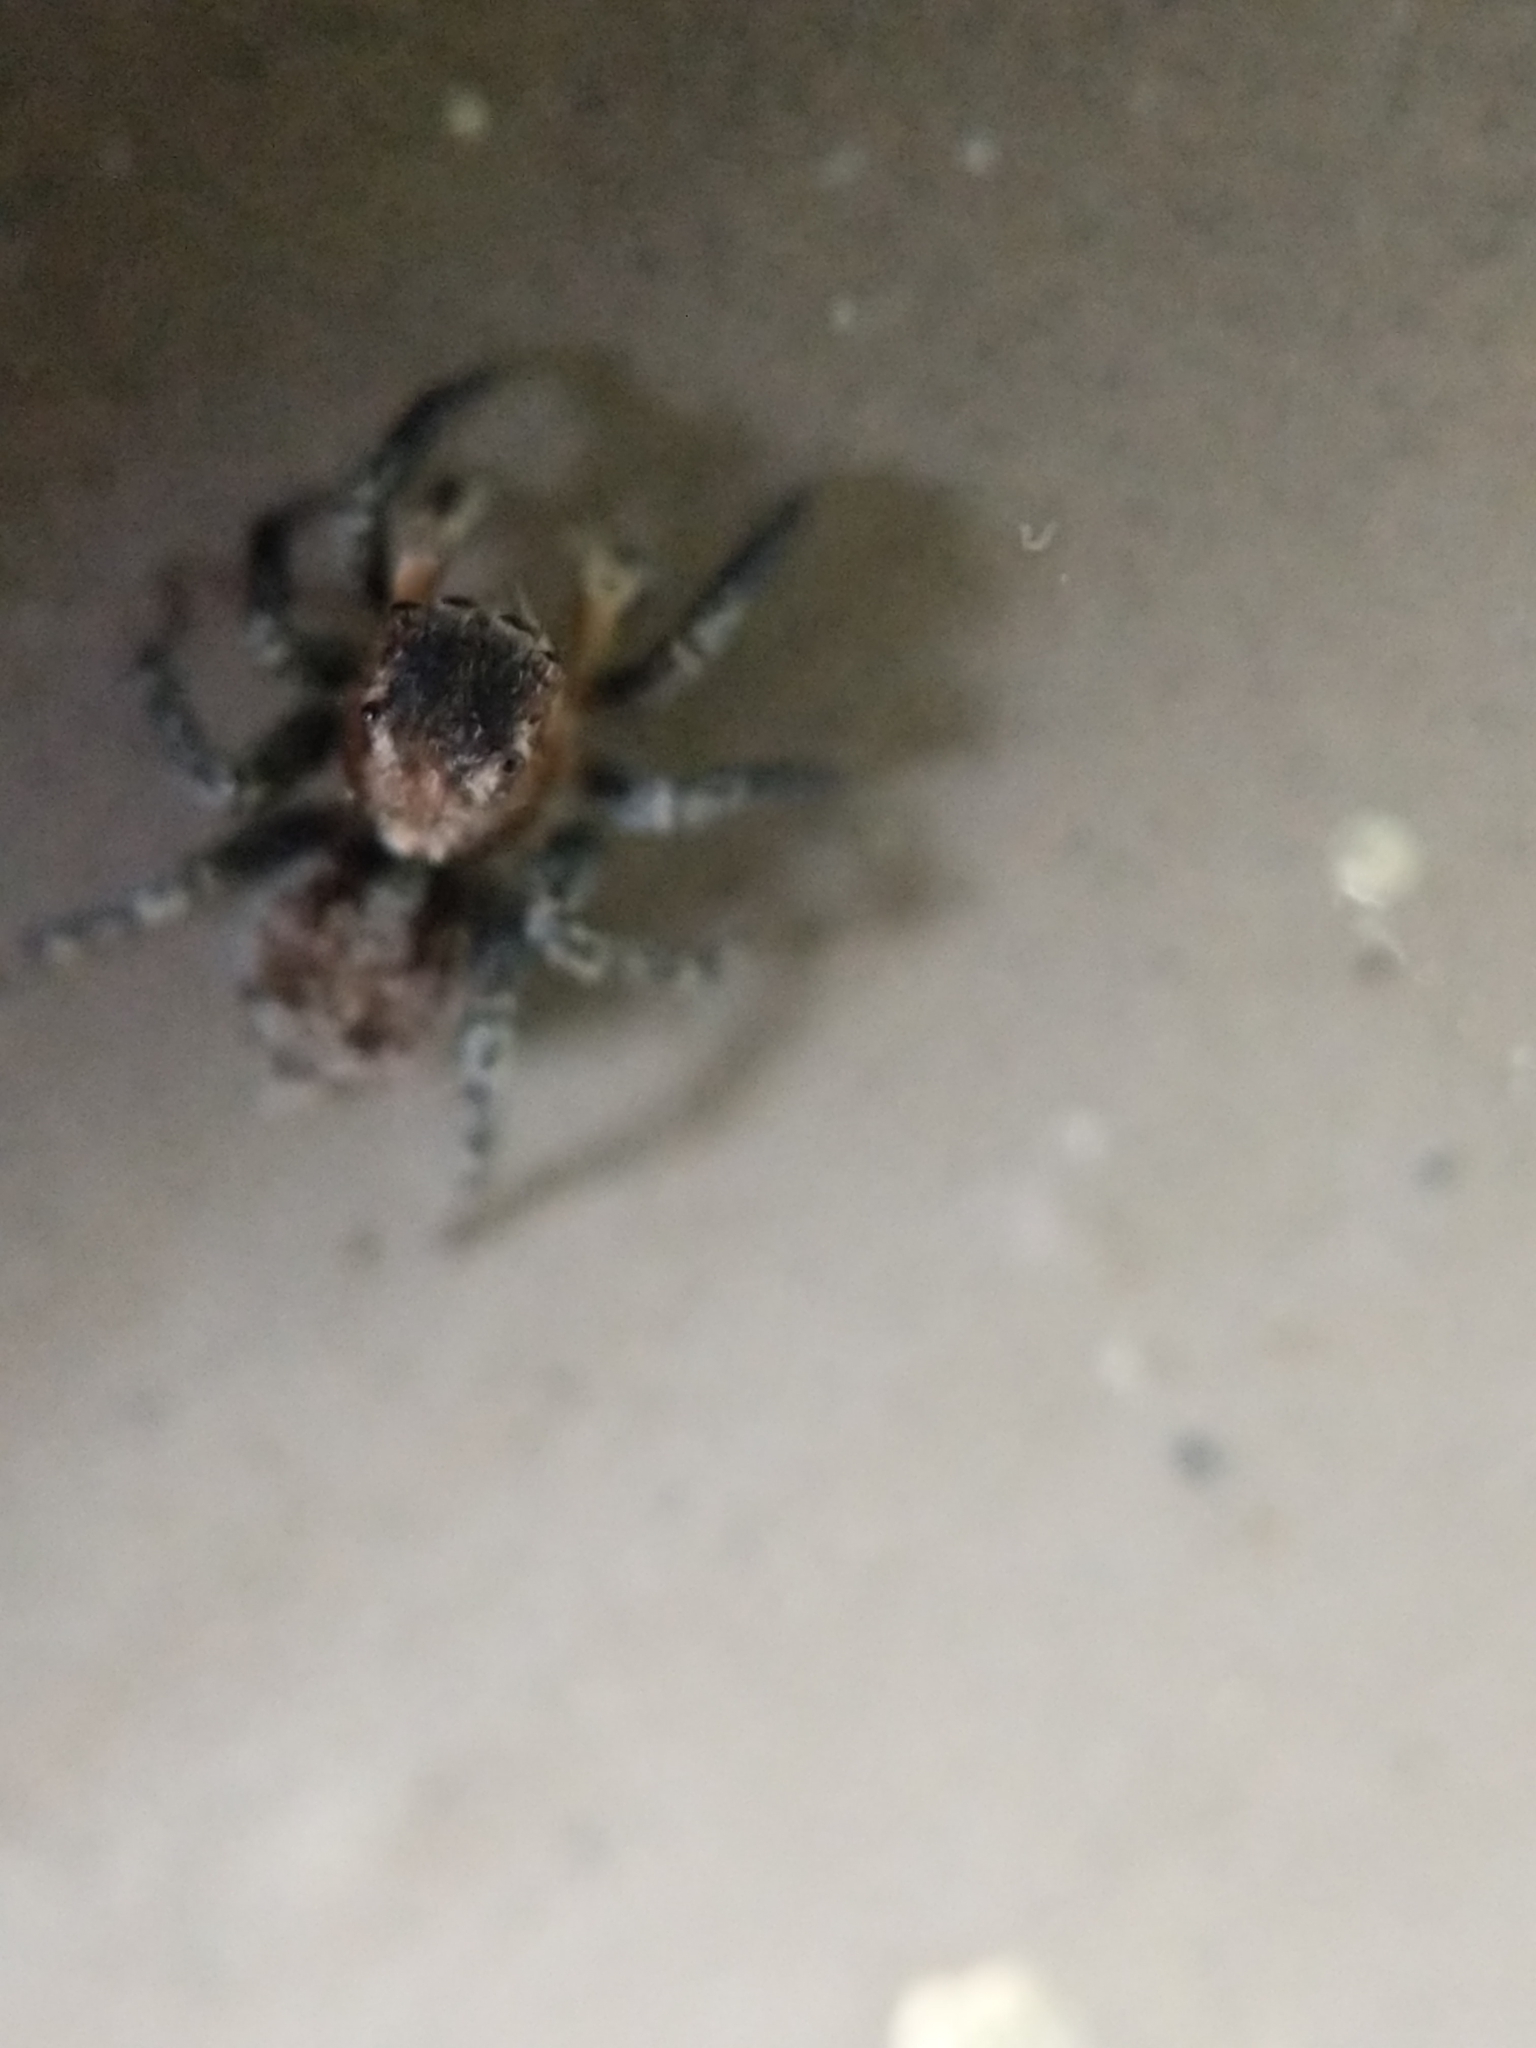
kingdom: Animalia
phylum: Arthropoda
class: Arachnida
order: Araneae
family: Salticidae
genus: Naphrys
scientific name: Naphrys pulex
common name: Flea jumping spider
